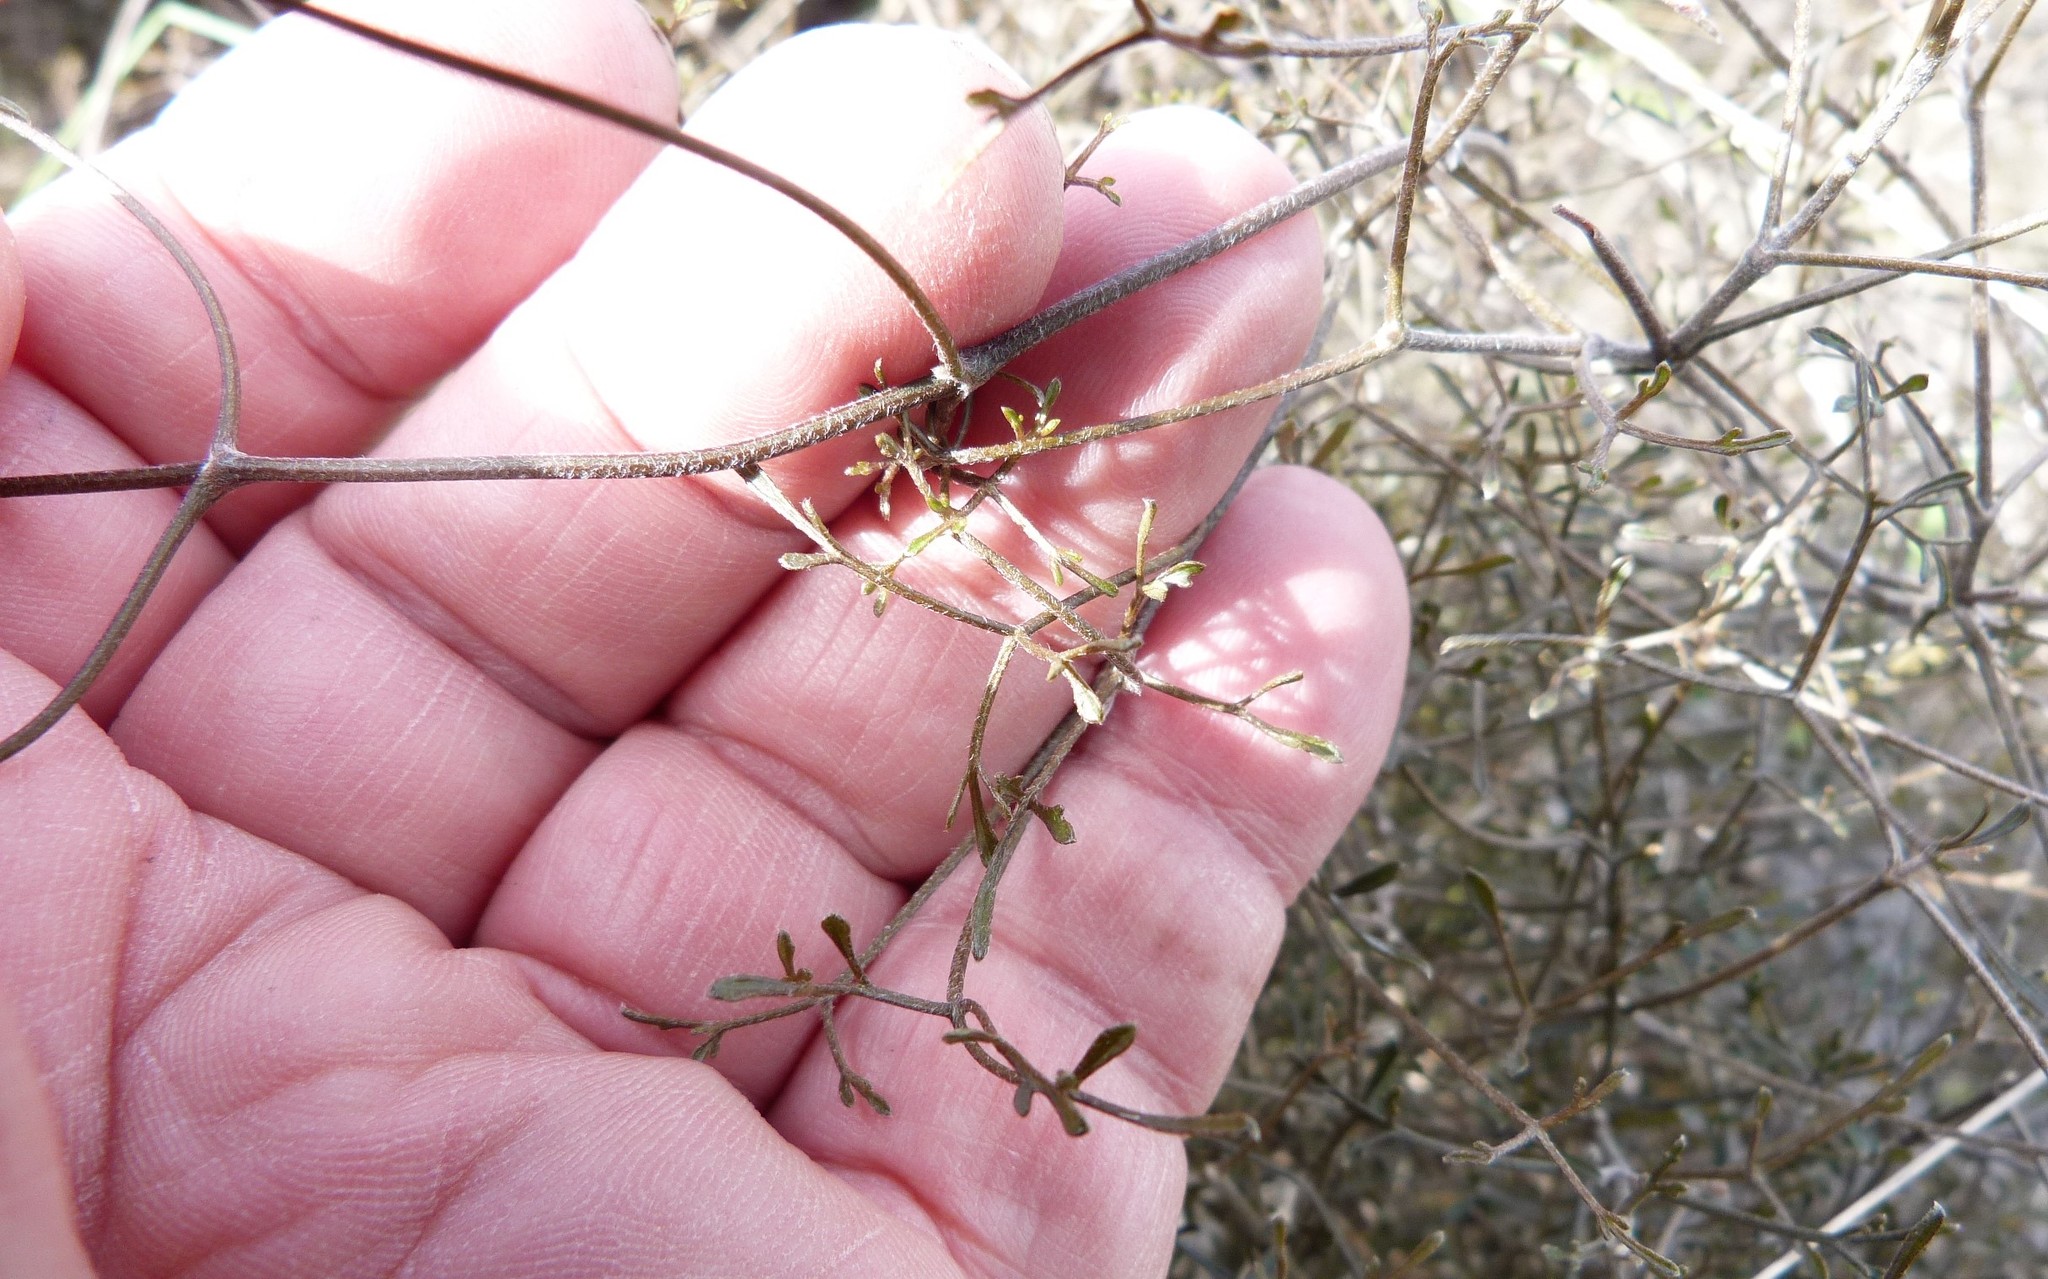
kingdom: Plantae
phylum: Tracheophyta
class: Magnoliopsida
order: Ranunculales
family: Ranunculaceae
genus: Clematis
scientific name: Clematis quadribracteolata
